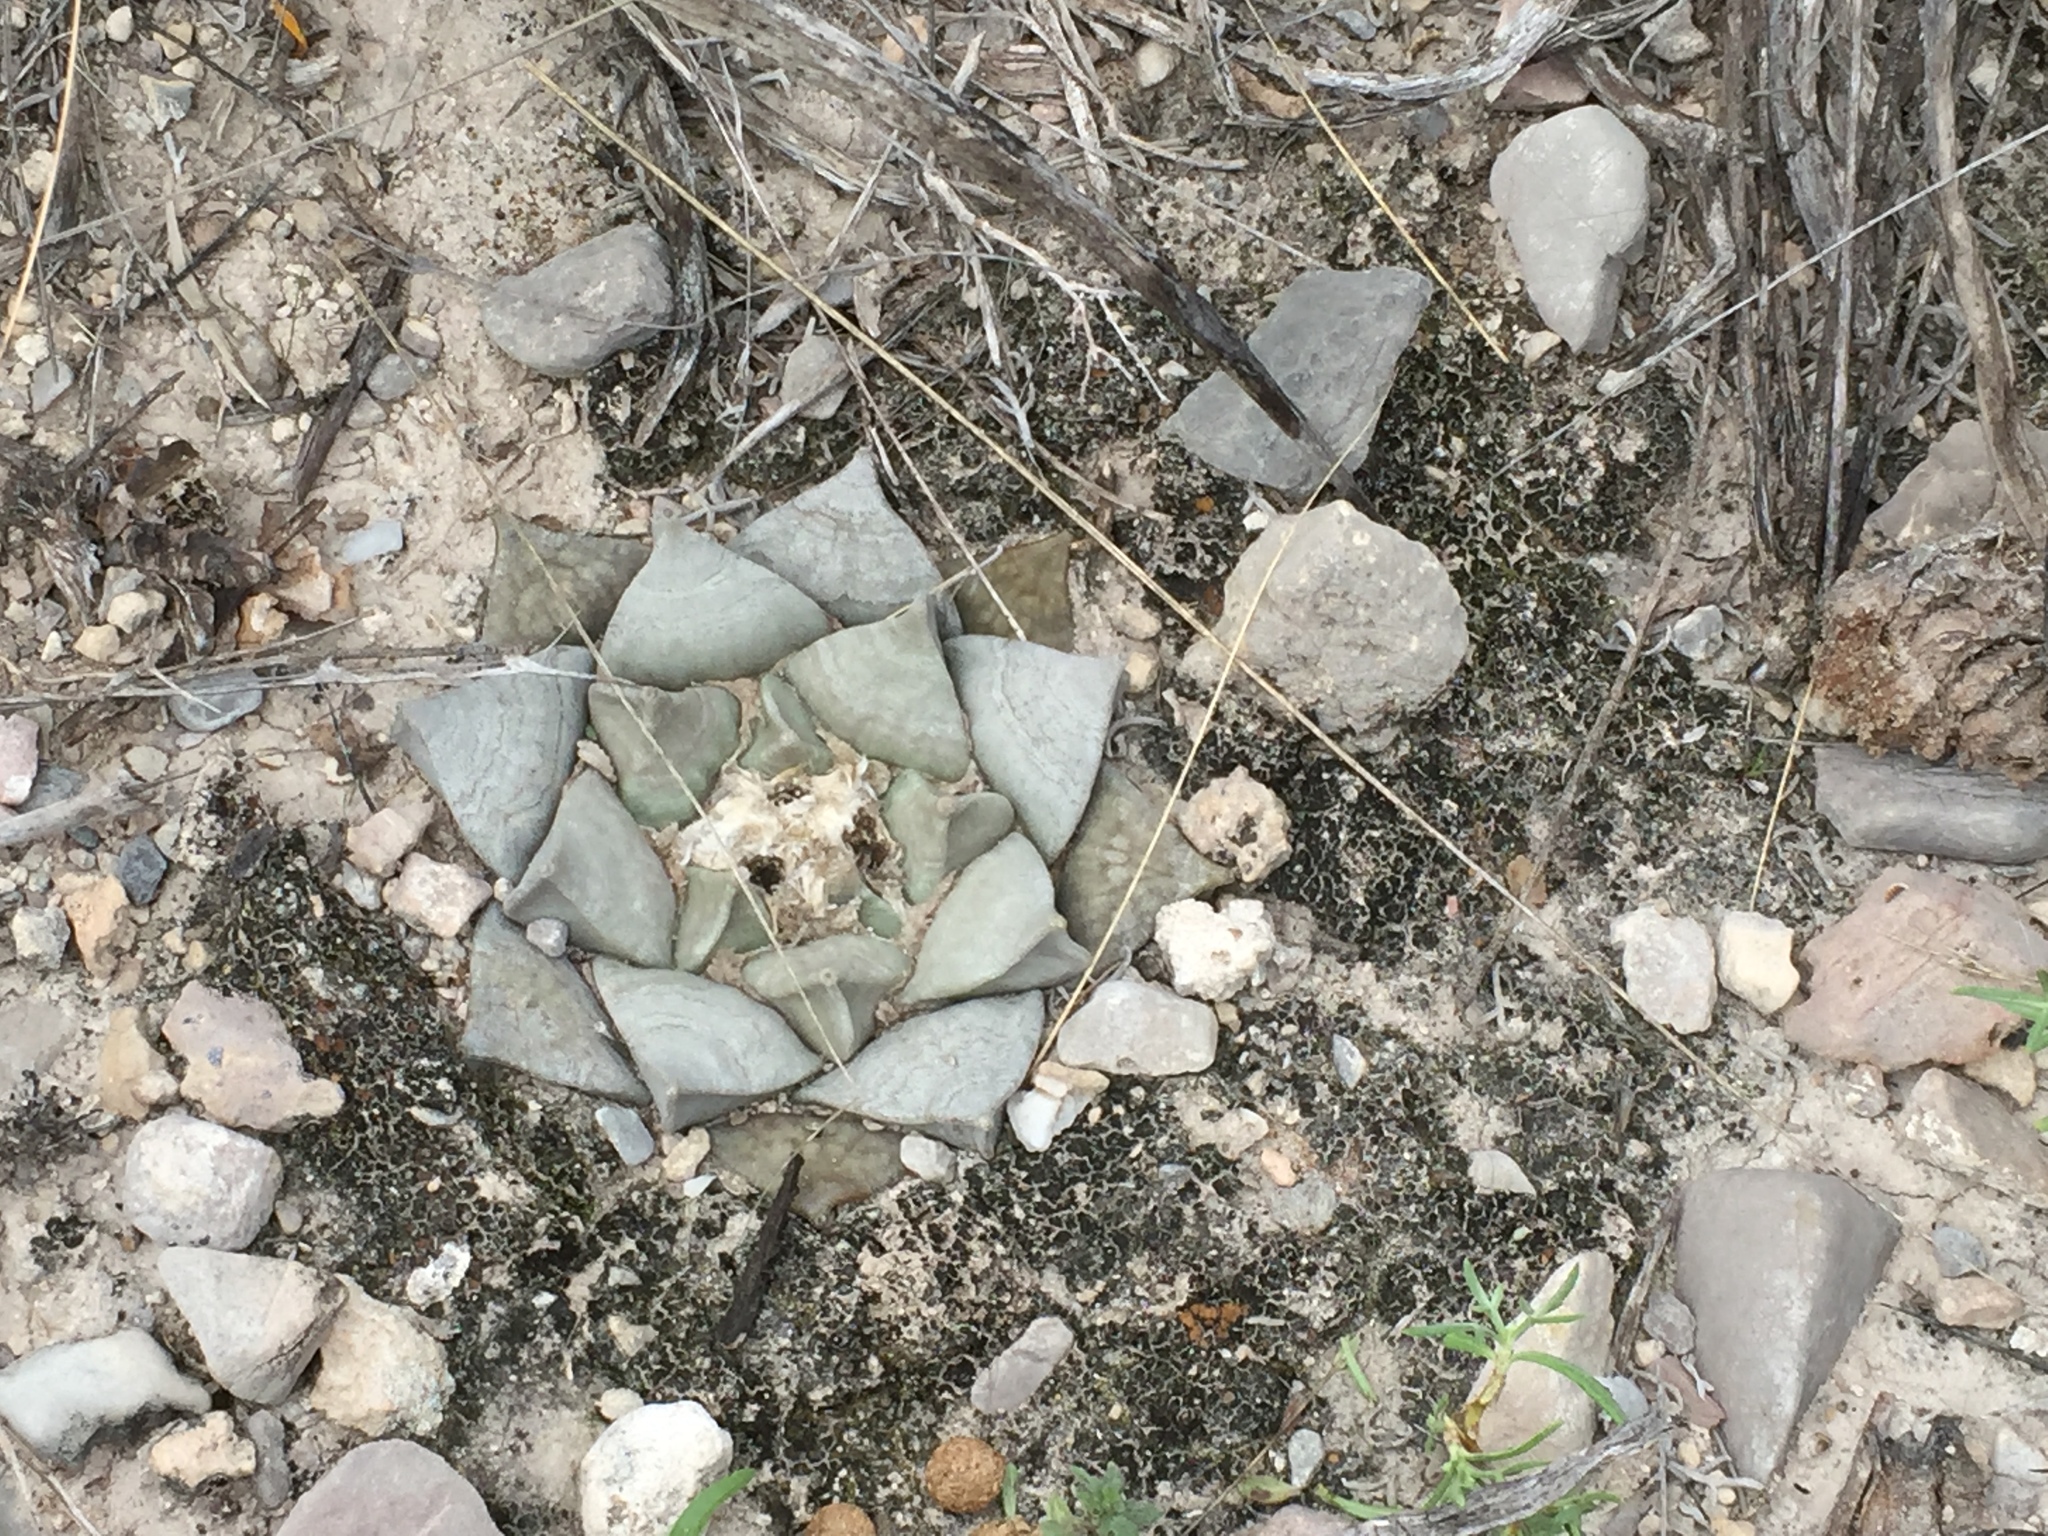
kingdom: Plantae
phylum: Tracheophyta
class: Magnoliopsida
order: Caryophyllales
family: Cactaceae
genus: Ariocarpus
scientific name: Ariocarpus retusus
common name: Seven stars
